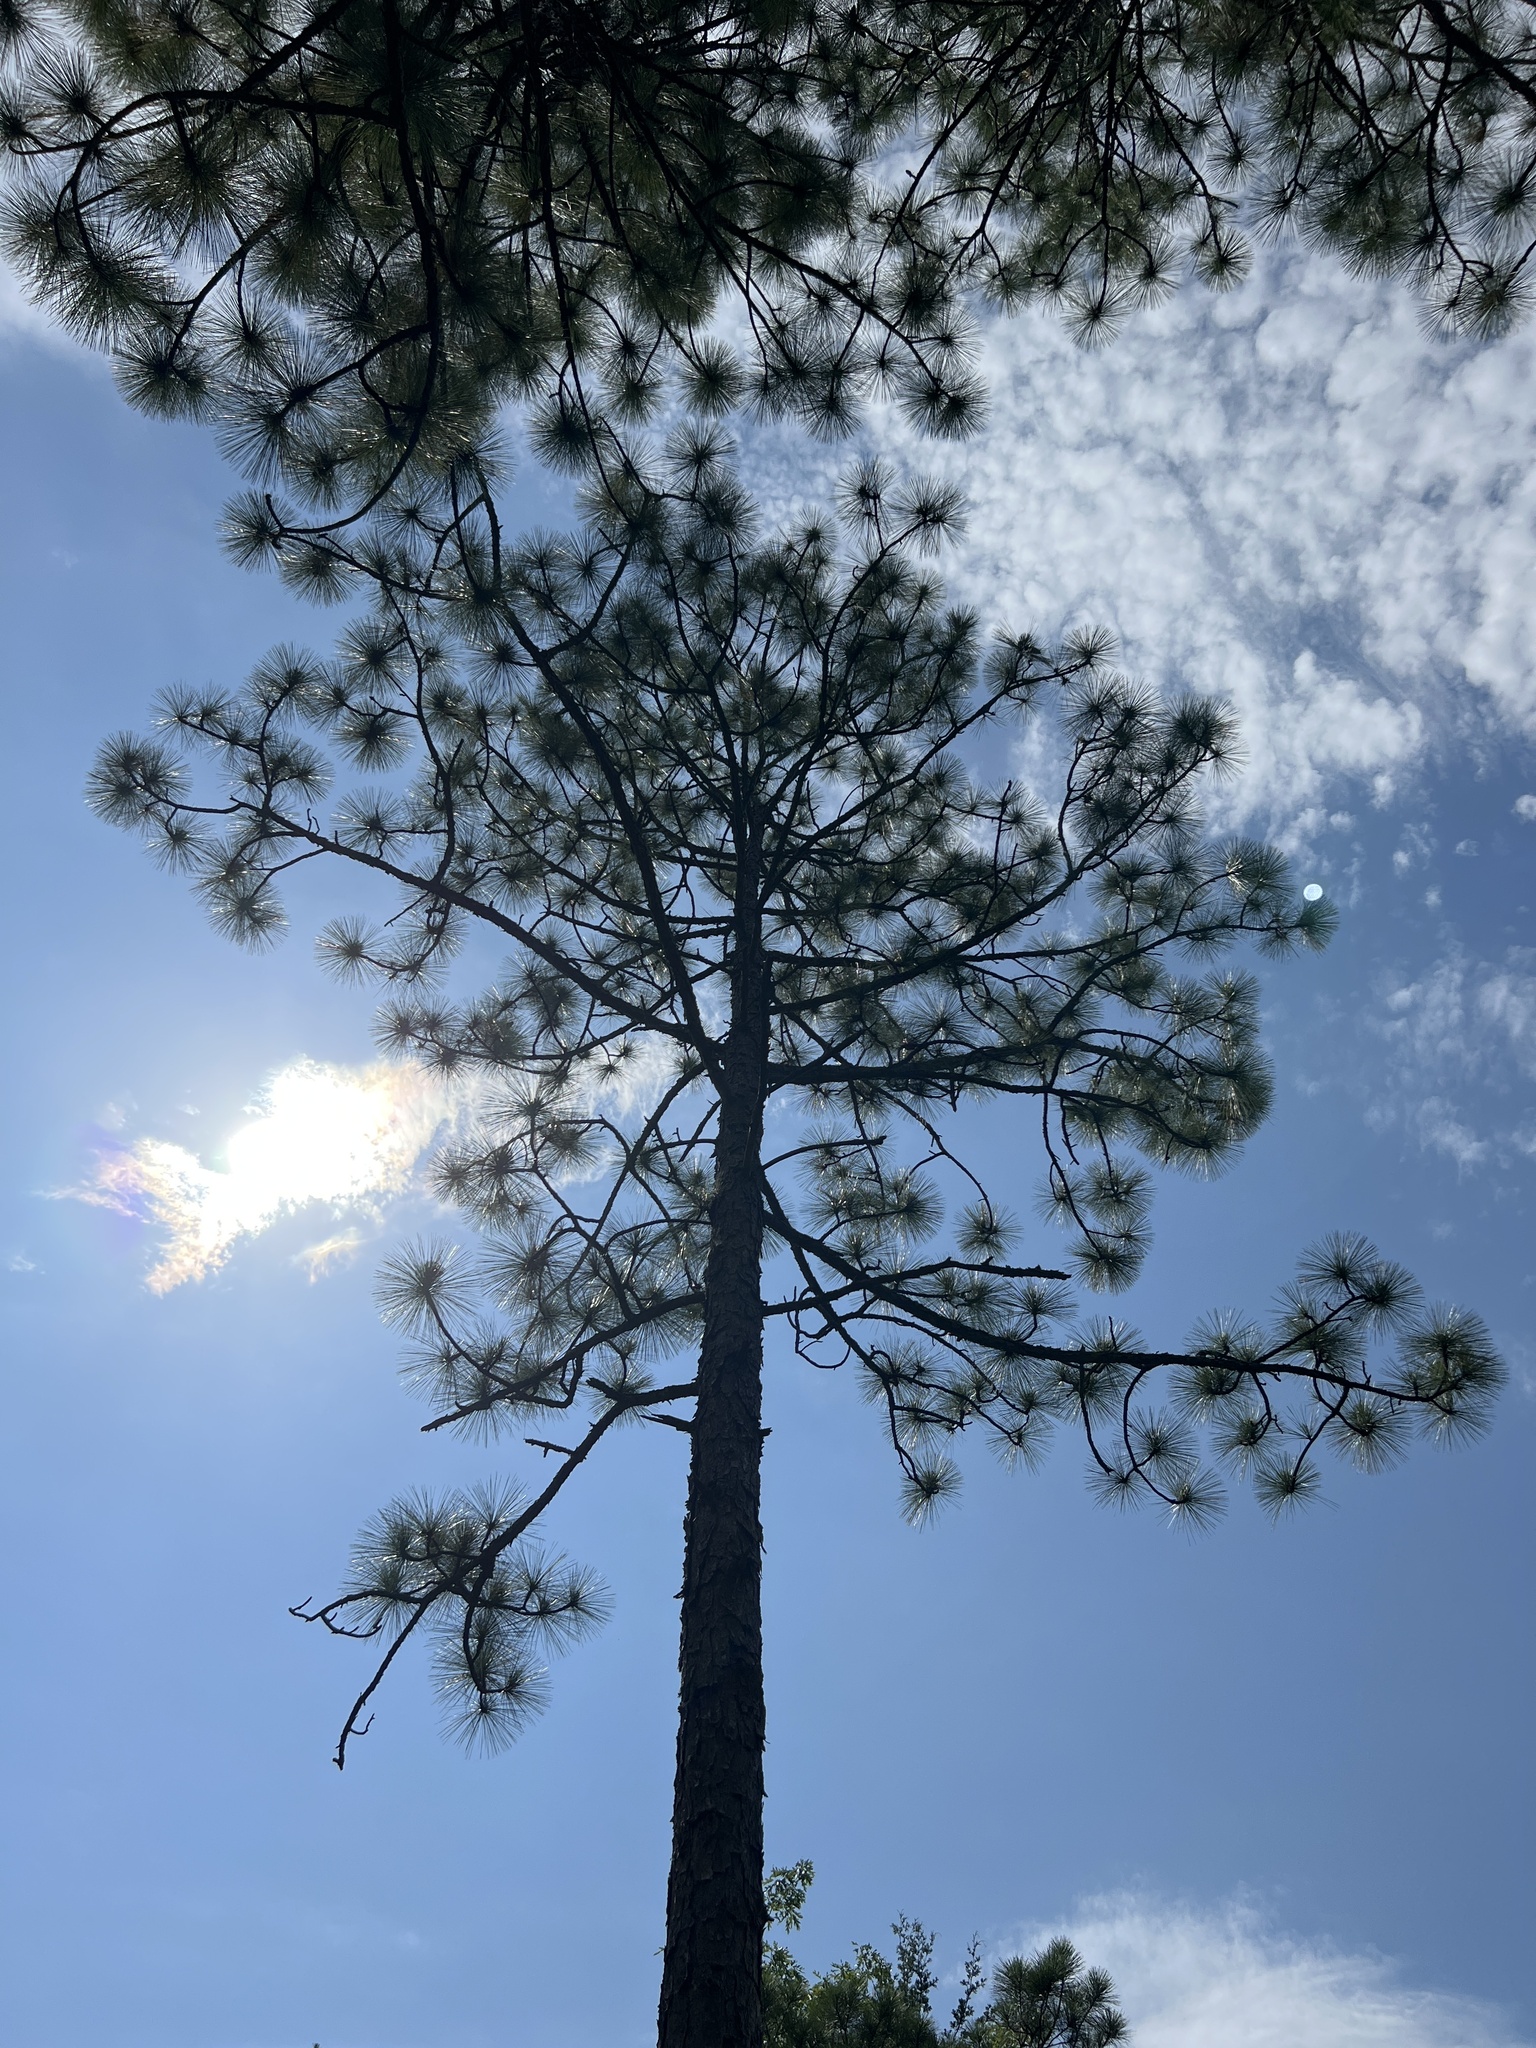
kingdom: Plantae
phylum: Tracheophyta
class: Pinopsida
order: Pinales
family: Pinaceae
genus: Pinus
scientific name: Pinus palustris
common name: Longleaf pine
